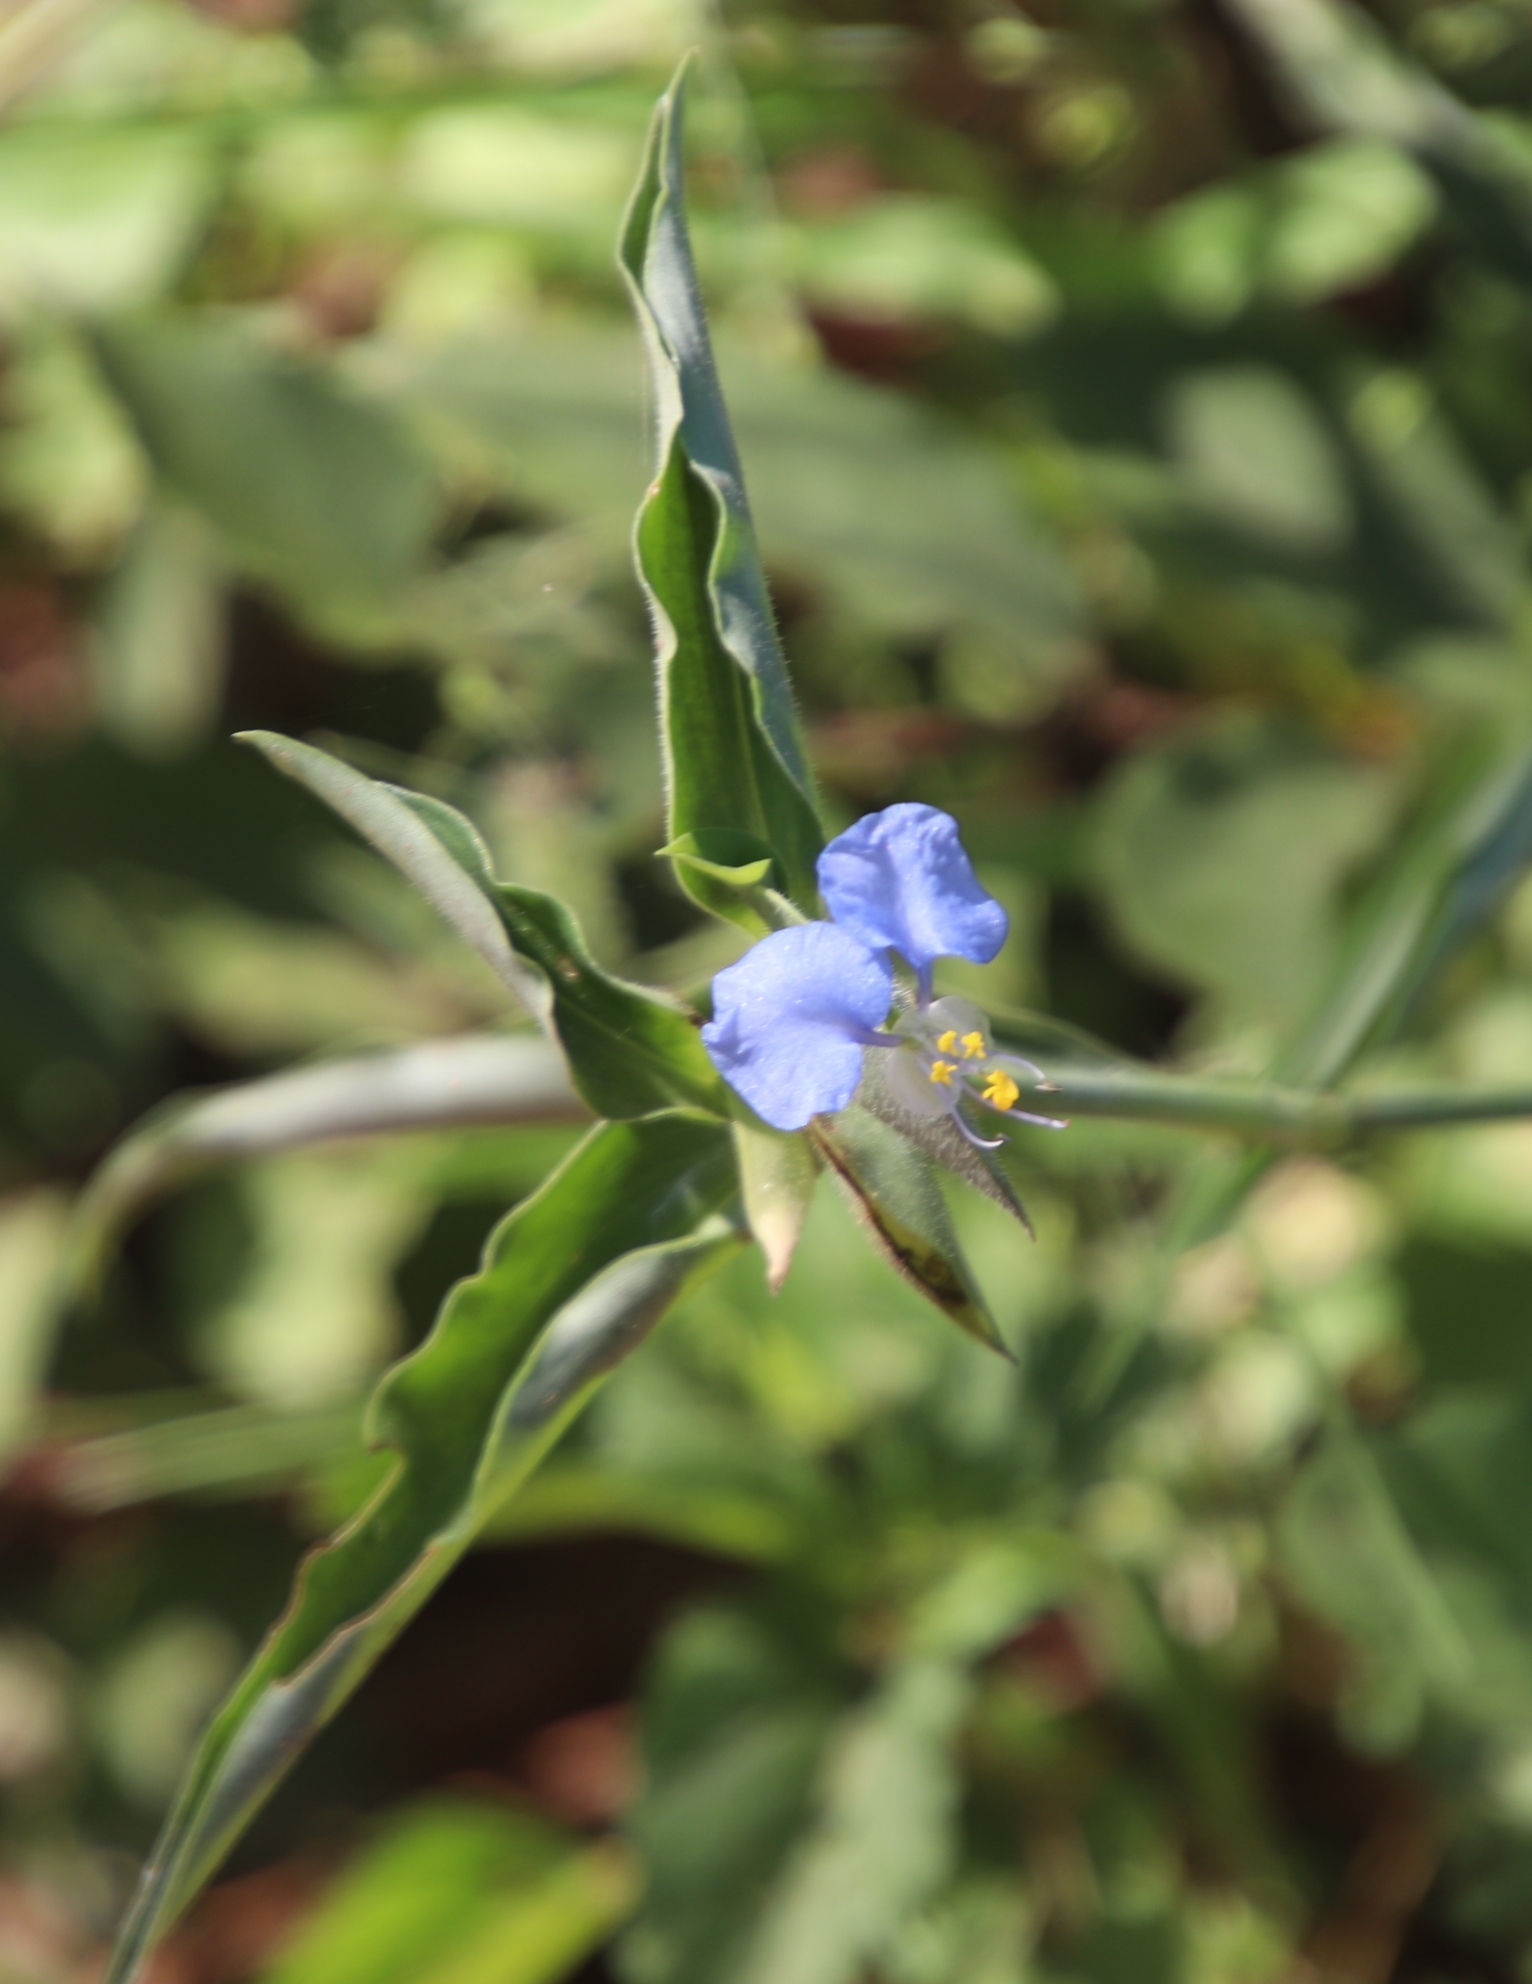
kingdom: Plantae
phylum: Tracheophyta
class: Liliopsida
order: Commelinales
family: Commelinaceae
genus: Commelina
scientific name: Commelina modesta
